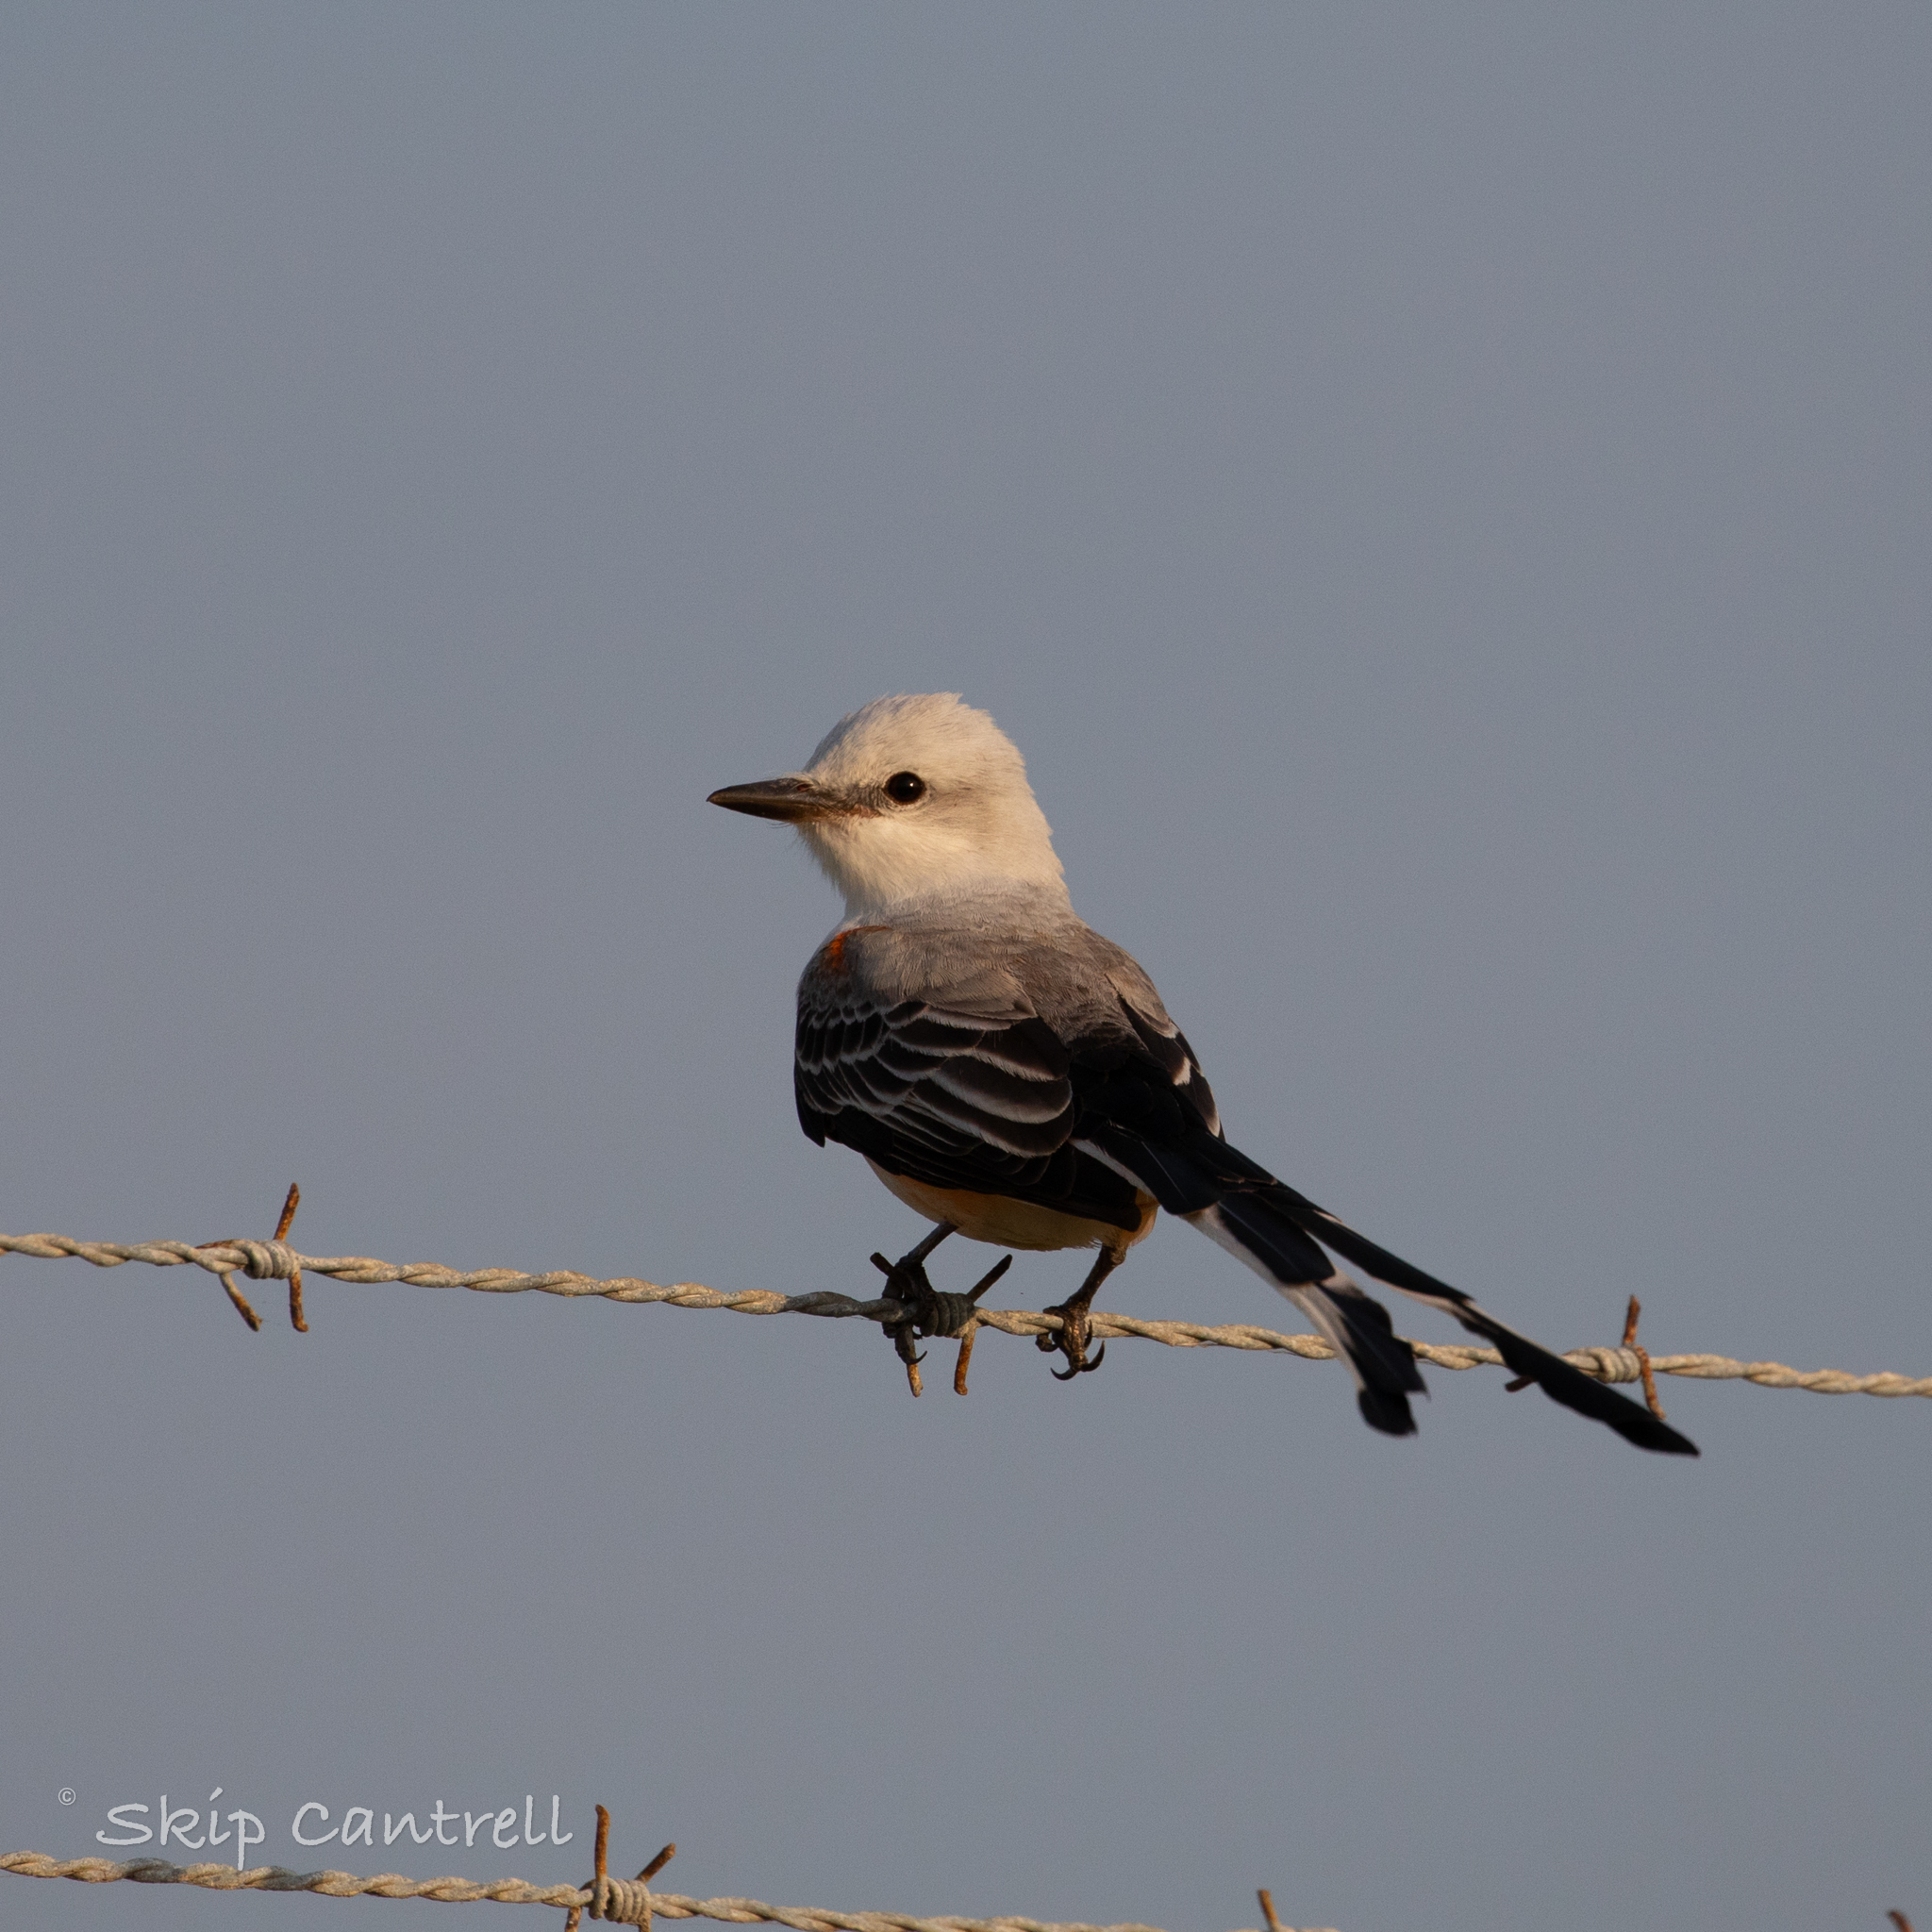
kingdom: Animalia
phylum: Chordata
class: Aves
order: Passeriformes
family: Tyrannidae
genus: Tyrannus
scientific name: Tyrannus forficatus
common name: Scissor-tailed flycatcher
